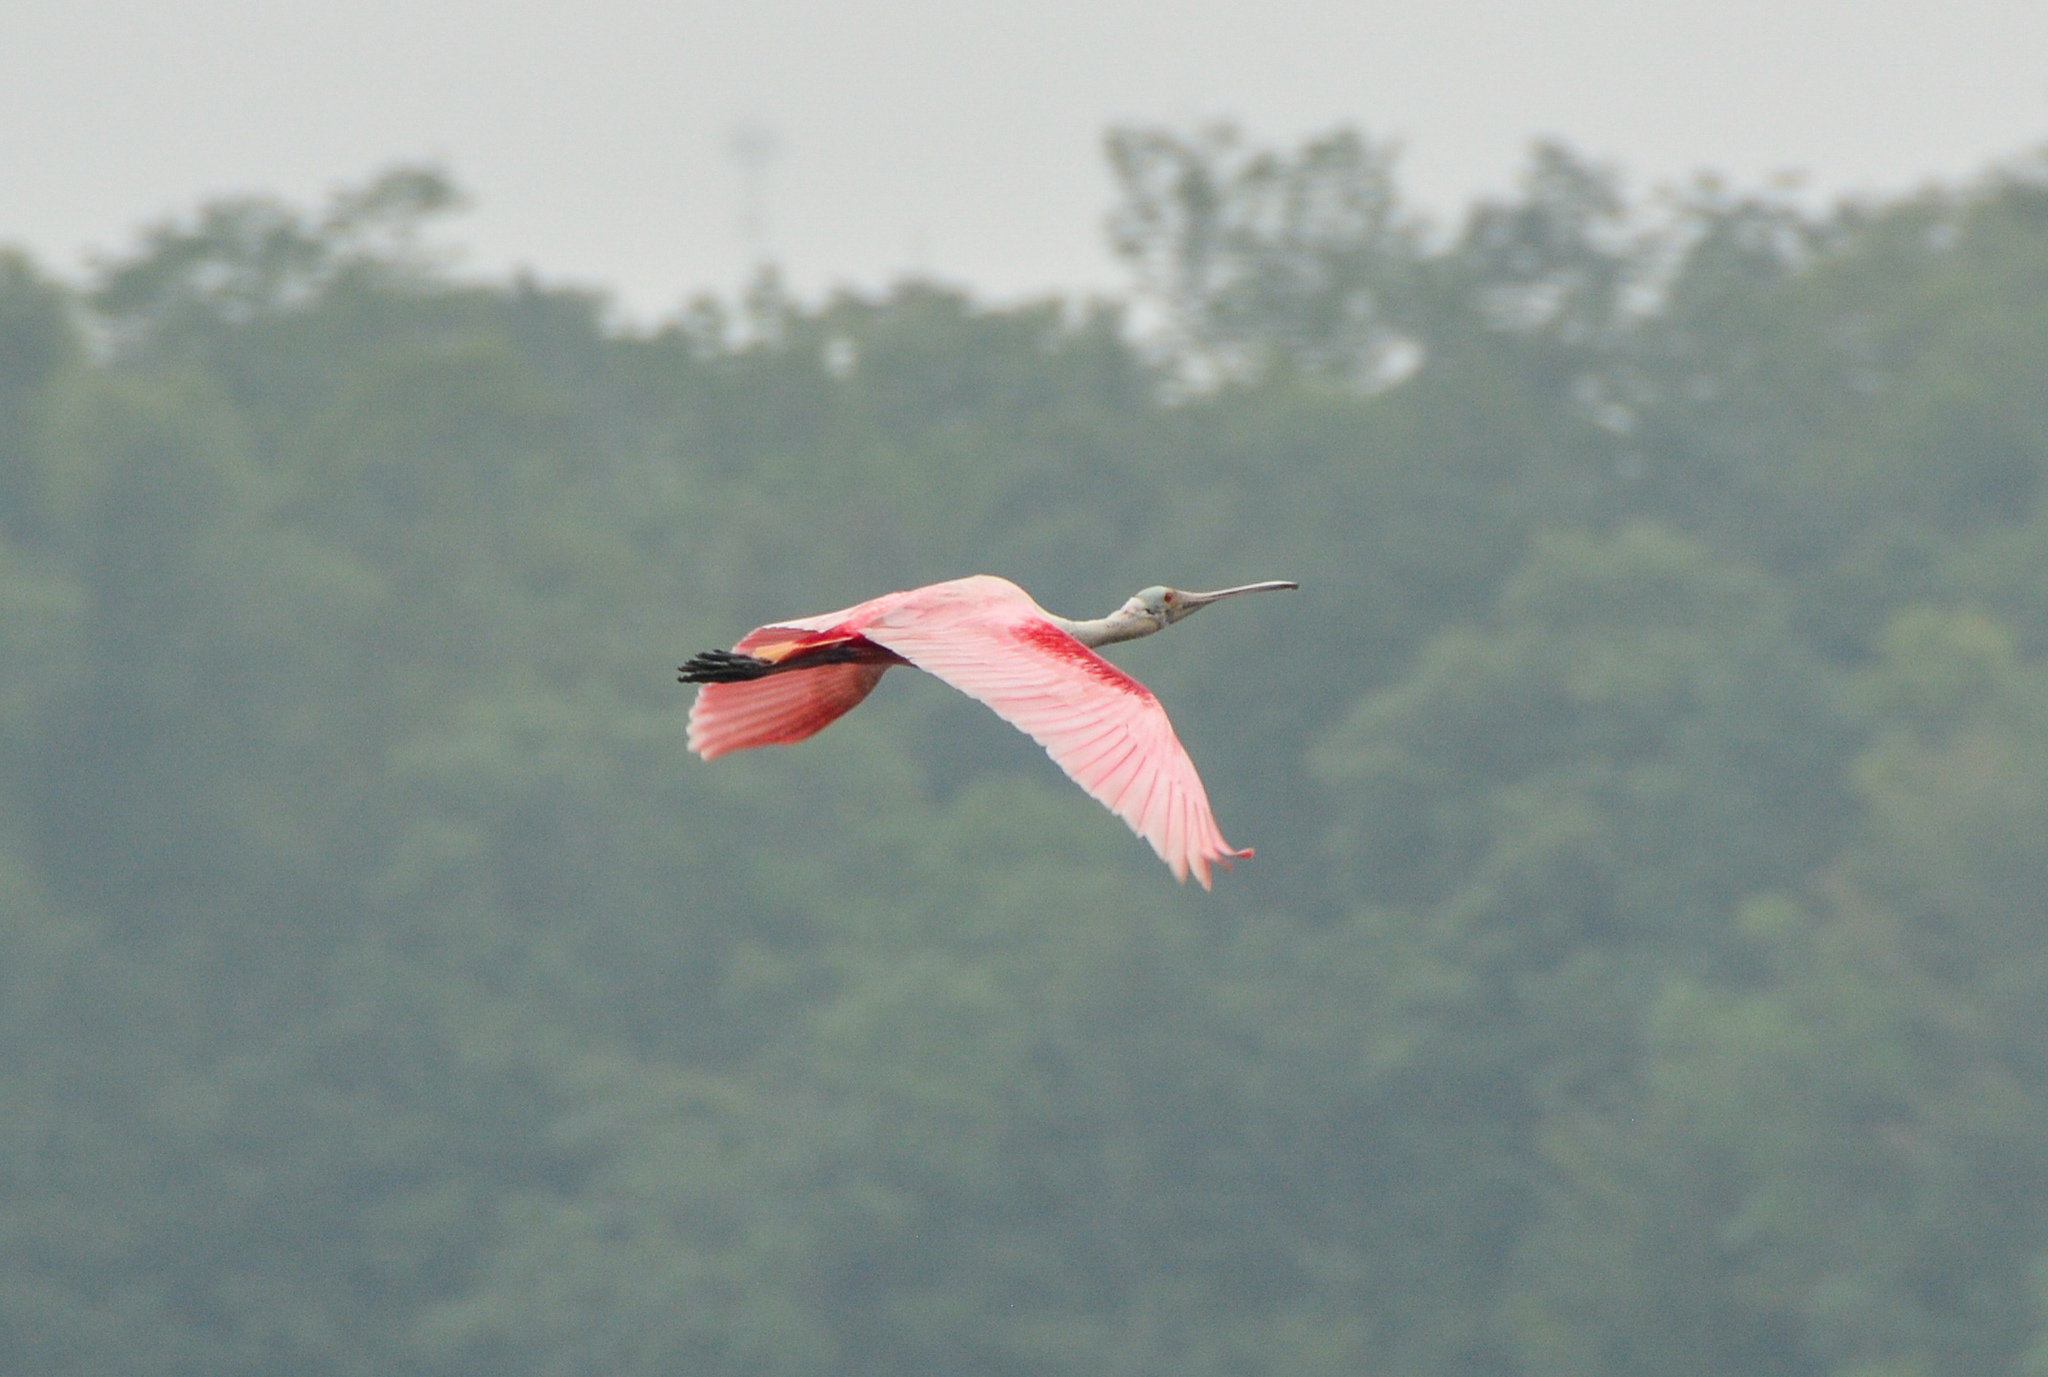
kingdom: Animalia
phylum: Chordata
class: Aves
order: Pelecaniformes
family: Threskiornithidae
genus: Platalea
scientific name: Platalea ajaja
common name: Roseate spoonbill
